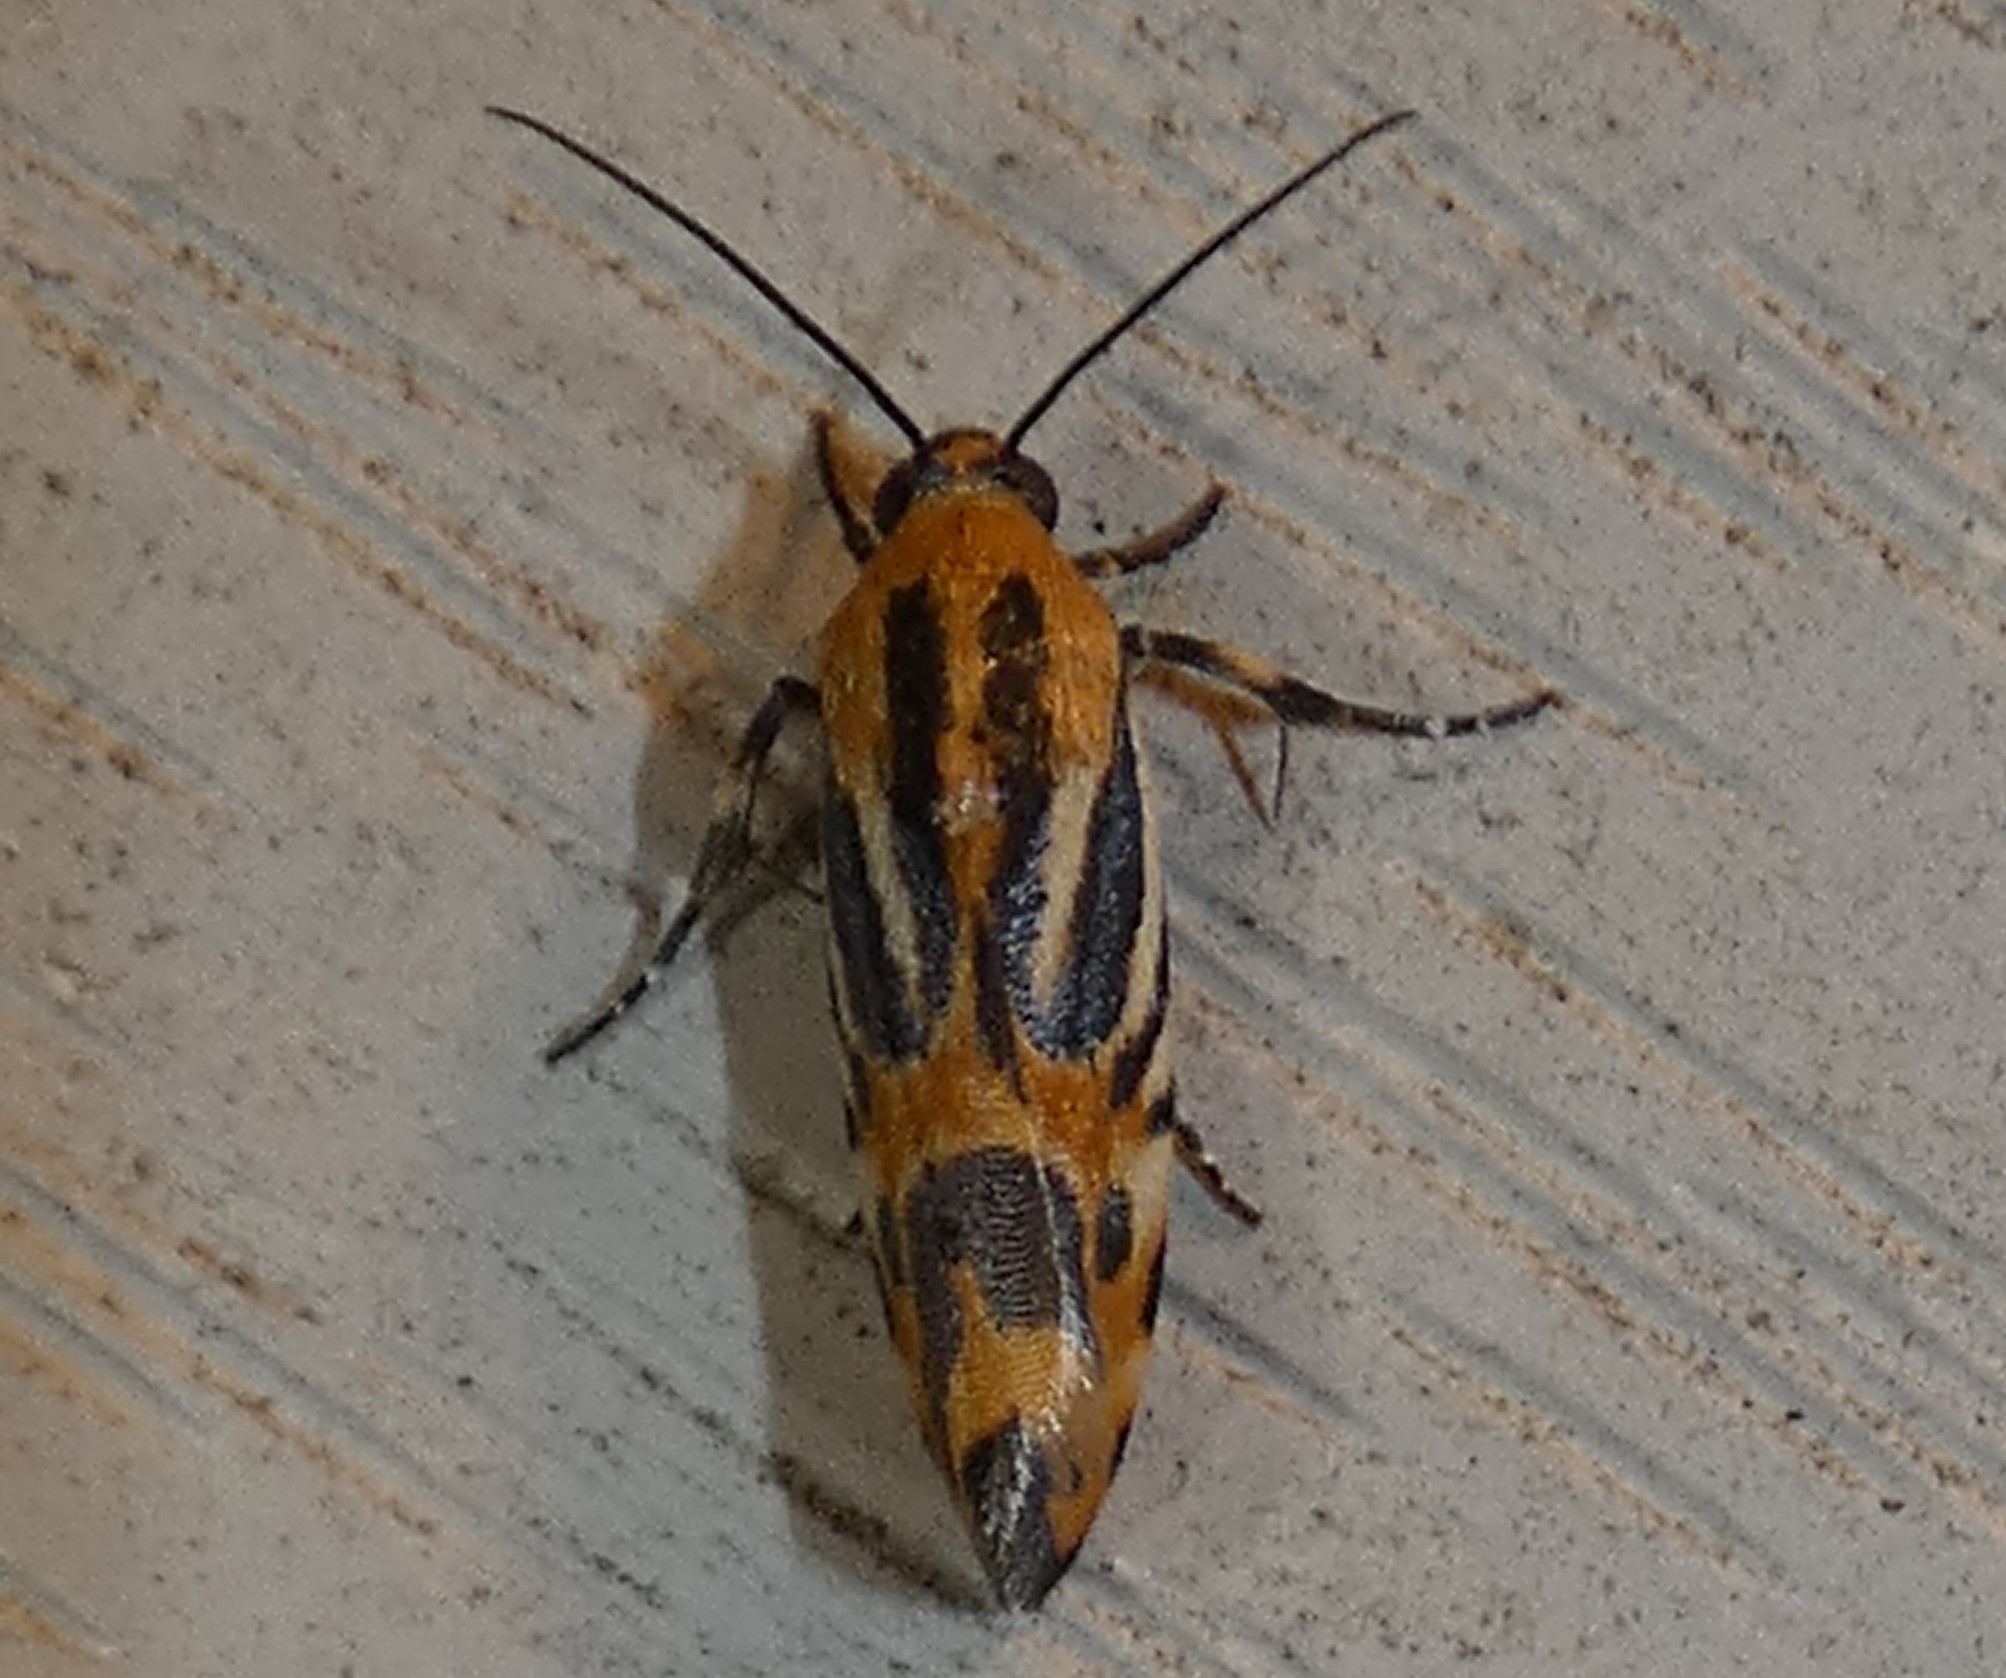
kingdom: Animalia
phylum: Arthropoda
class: Insecta
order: Lepidoptera
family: Noctuidae
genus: Acontia
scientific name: Acontia onagrus
